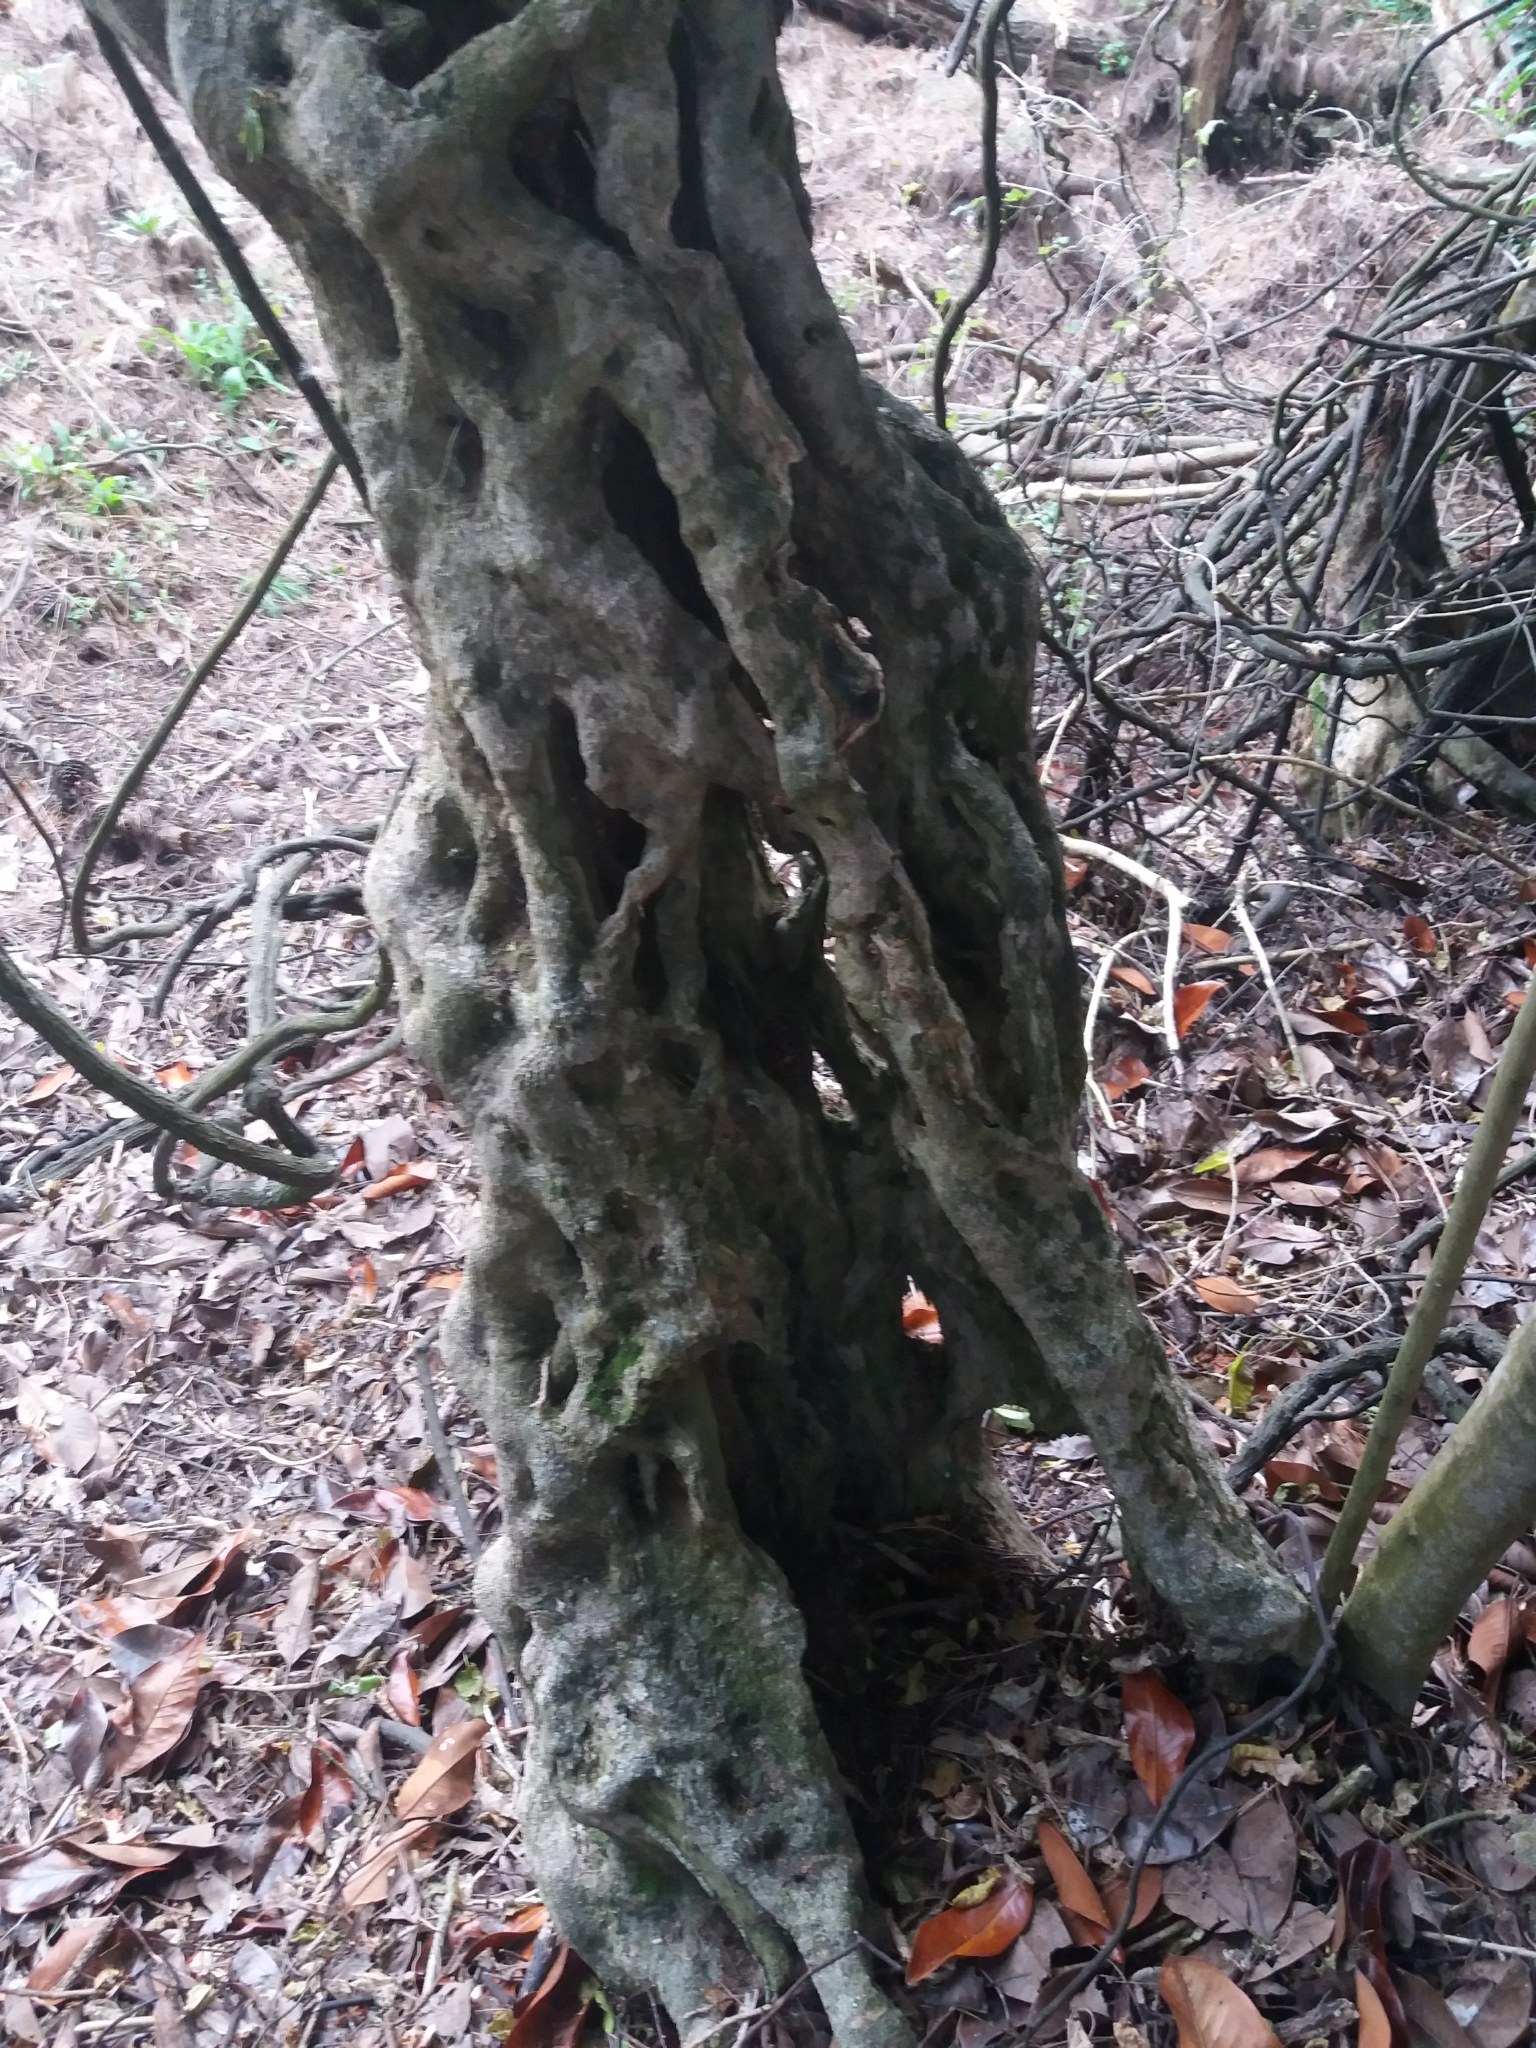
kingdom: Plantae
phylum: Tracheophyta
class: Magnoliopsida
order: Malpighiales
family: Violaceae
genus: Melicytus
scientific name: Melicytus ramiflorus
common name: Mahoe
